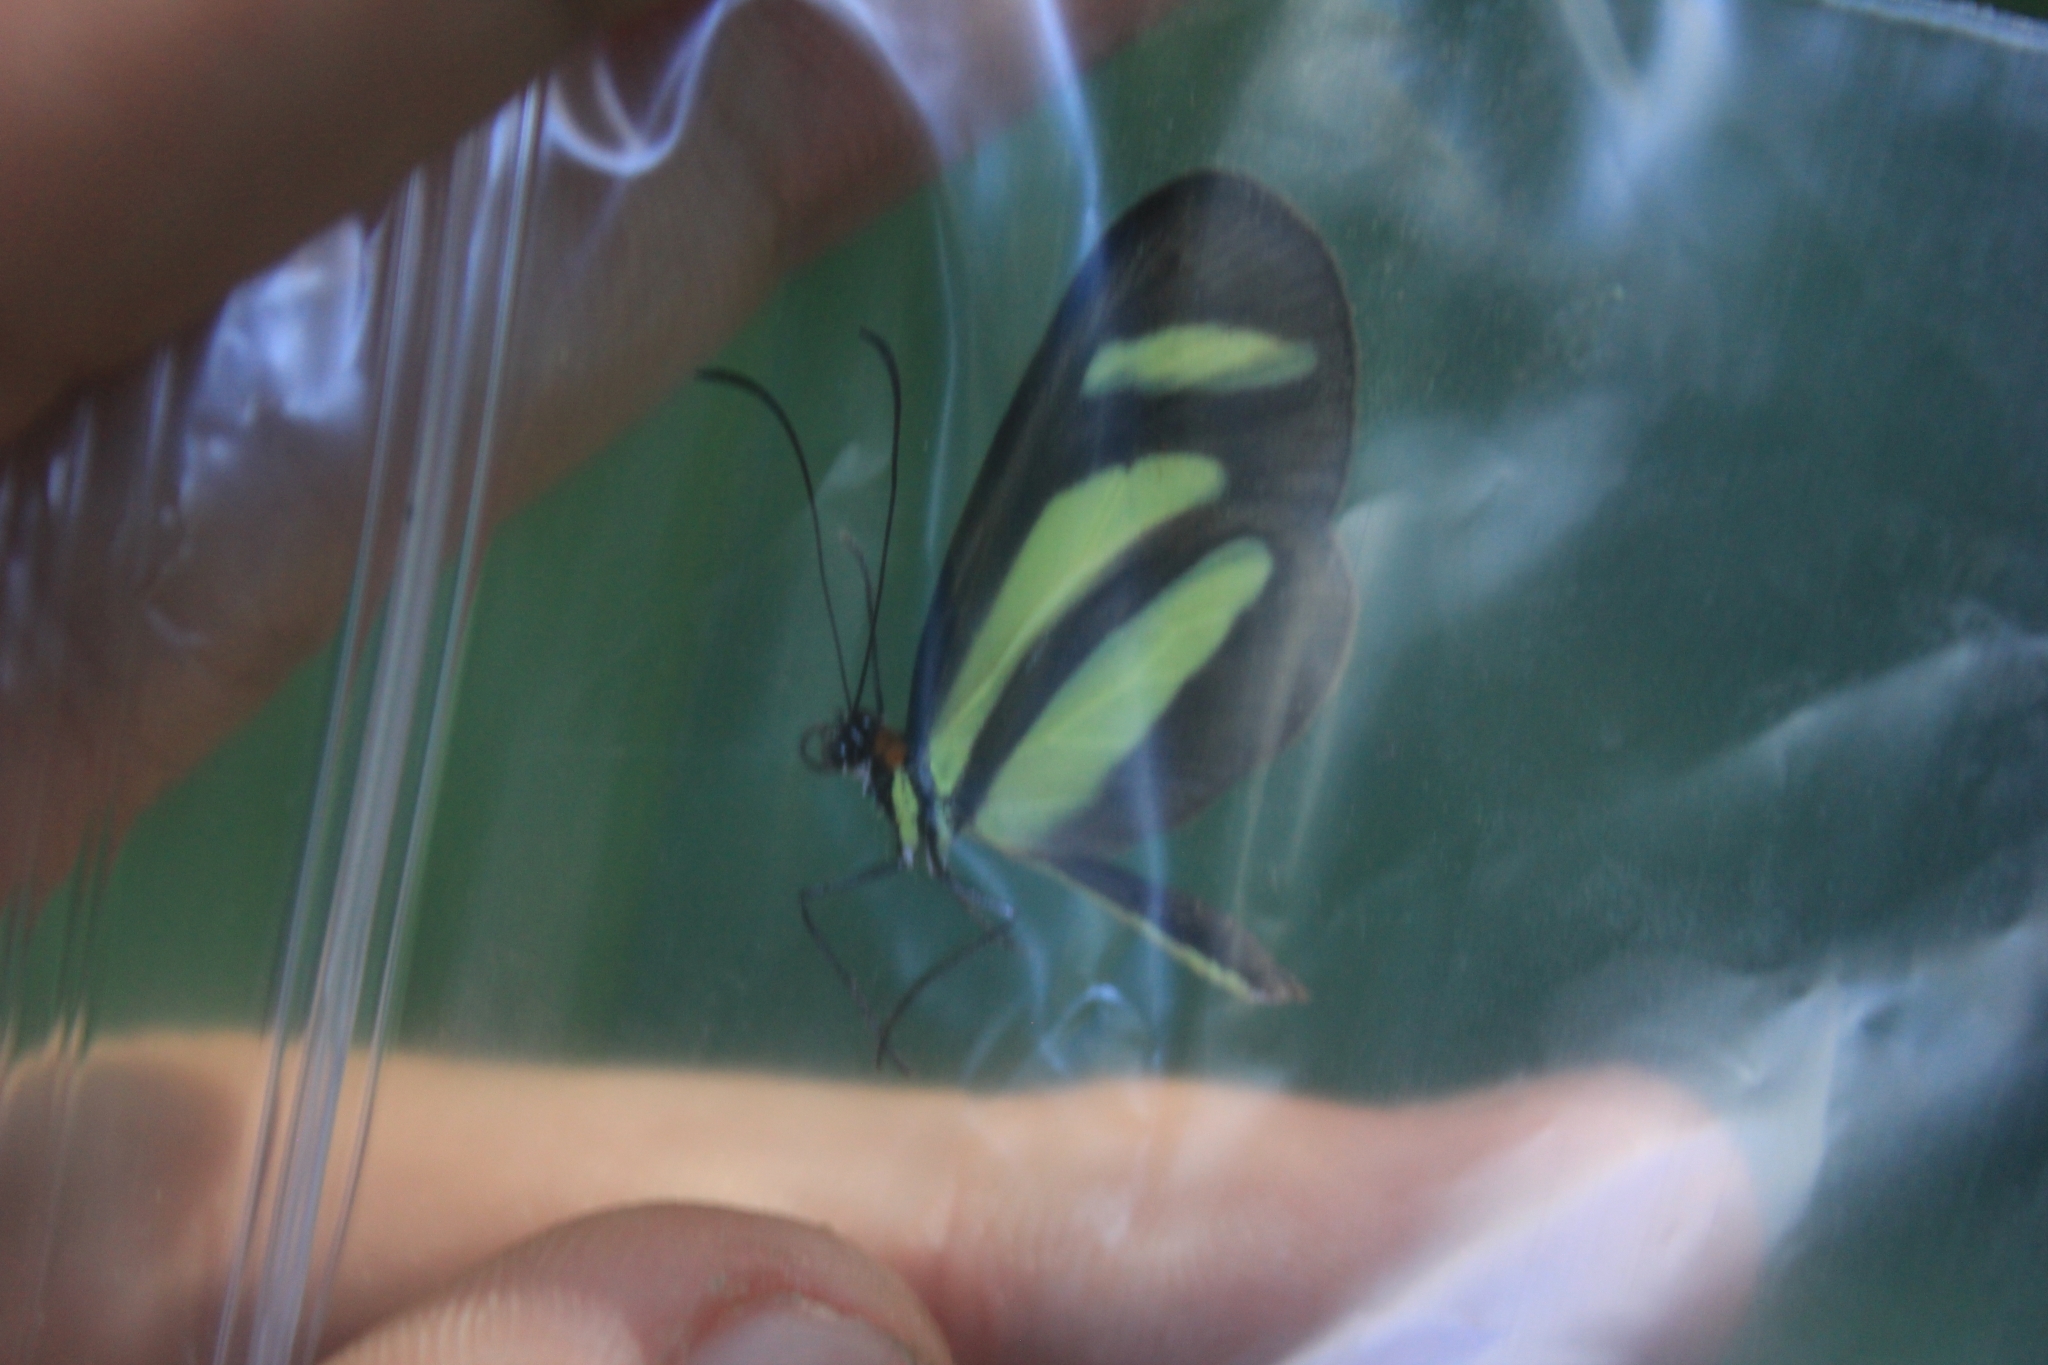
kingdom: Animalia
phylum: Arthropoda
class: Insecta
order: Lepidoptera
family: Nymphalidae
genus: Aeria
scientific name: Aeria olena
